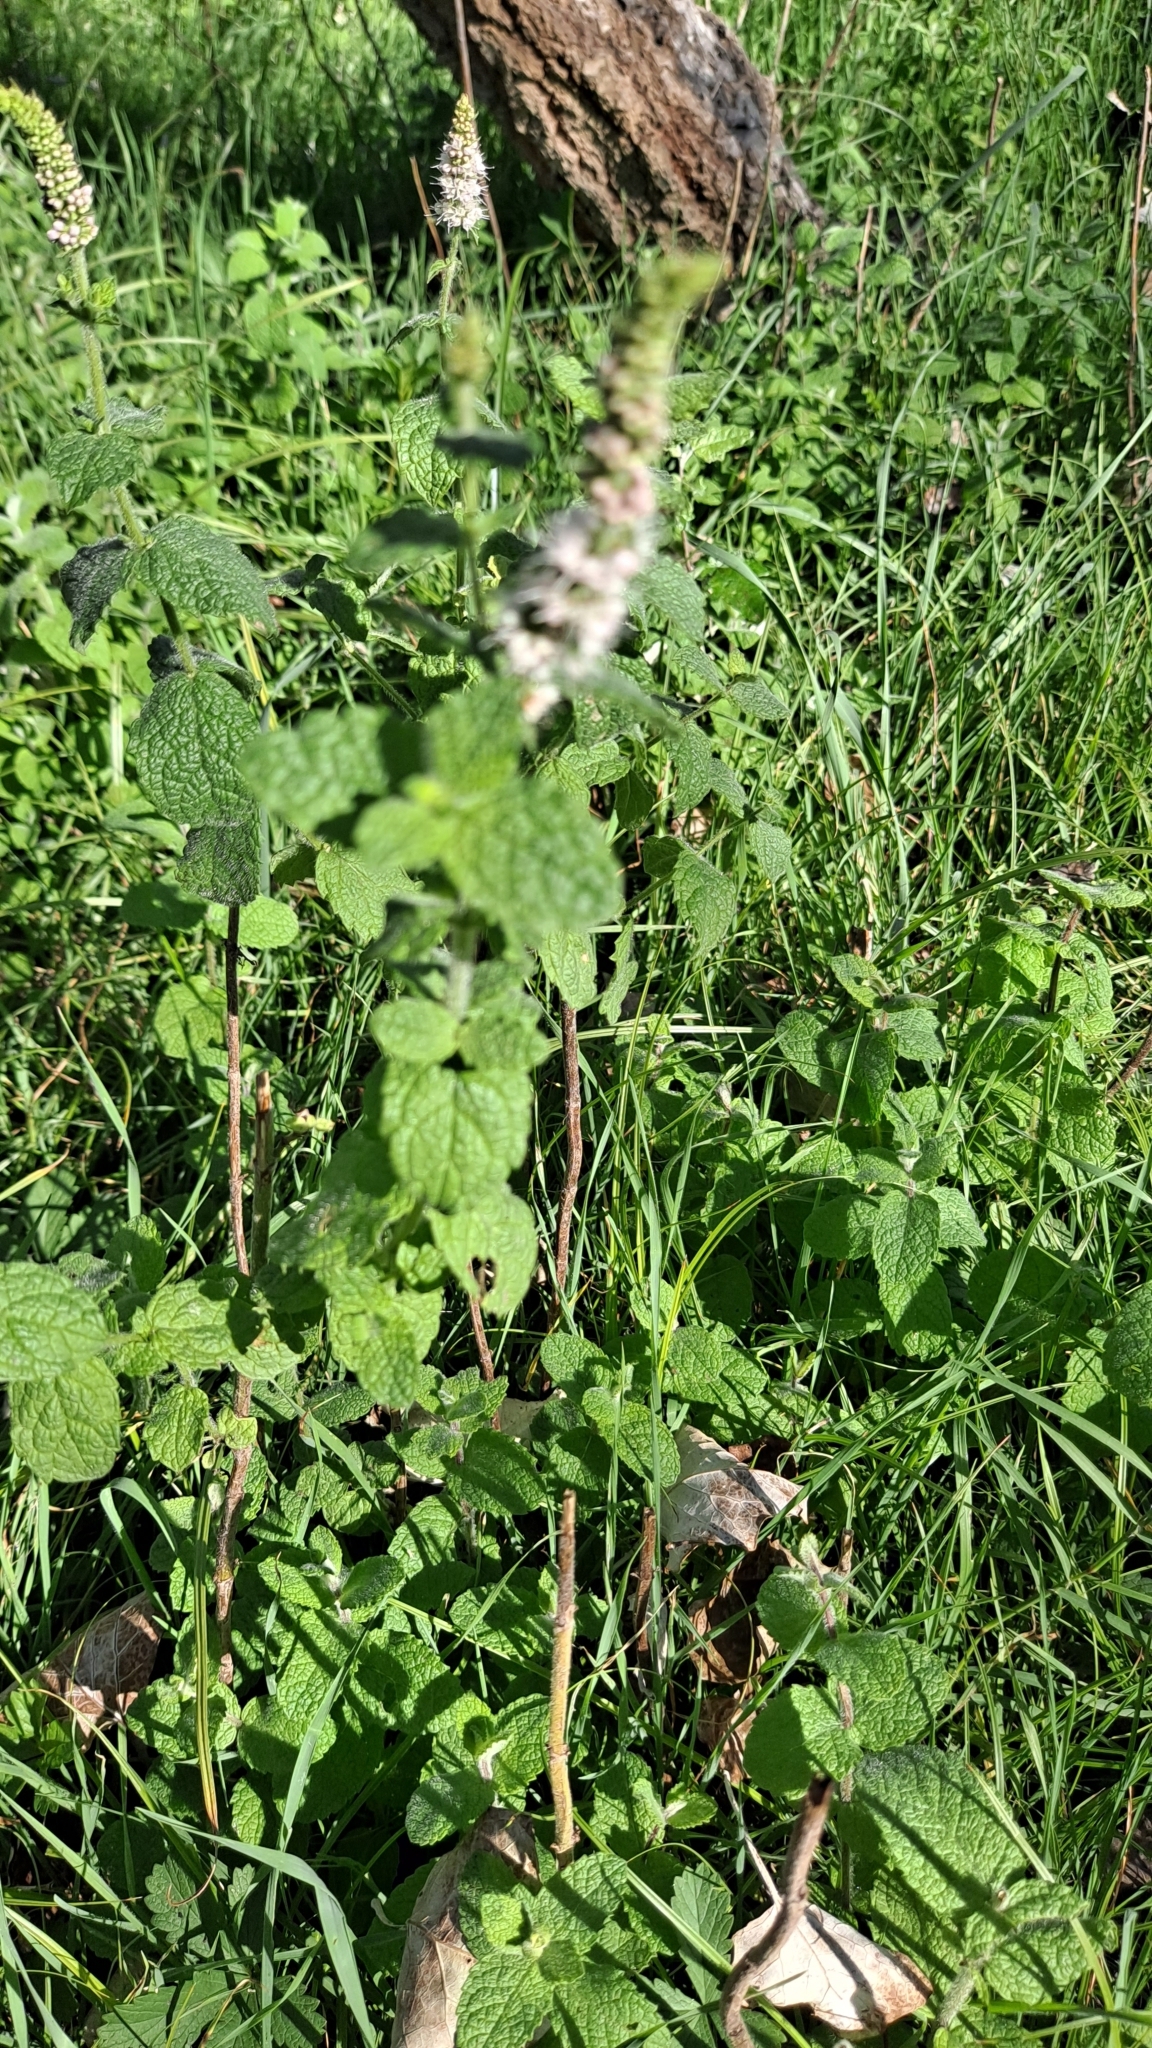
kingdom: Plantae
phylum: Tracheophyta
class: Magnoliopsida
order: Lamiales
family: Lamiaceae
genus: Mentha
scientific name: Mentha suaveolens
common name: Apple mint
